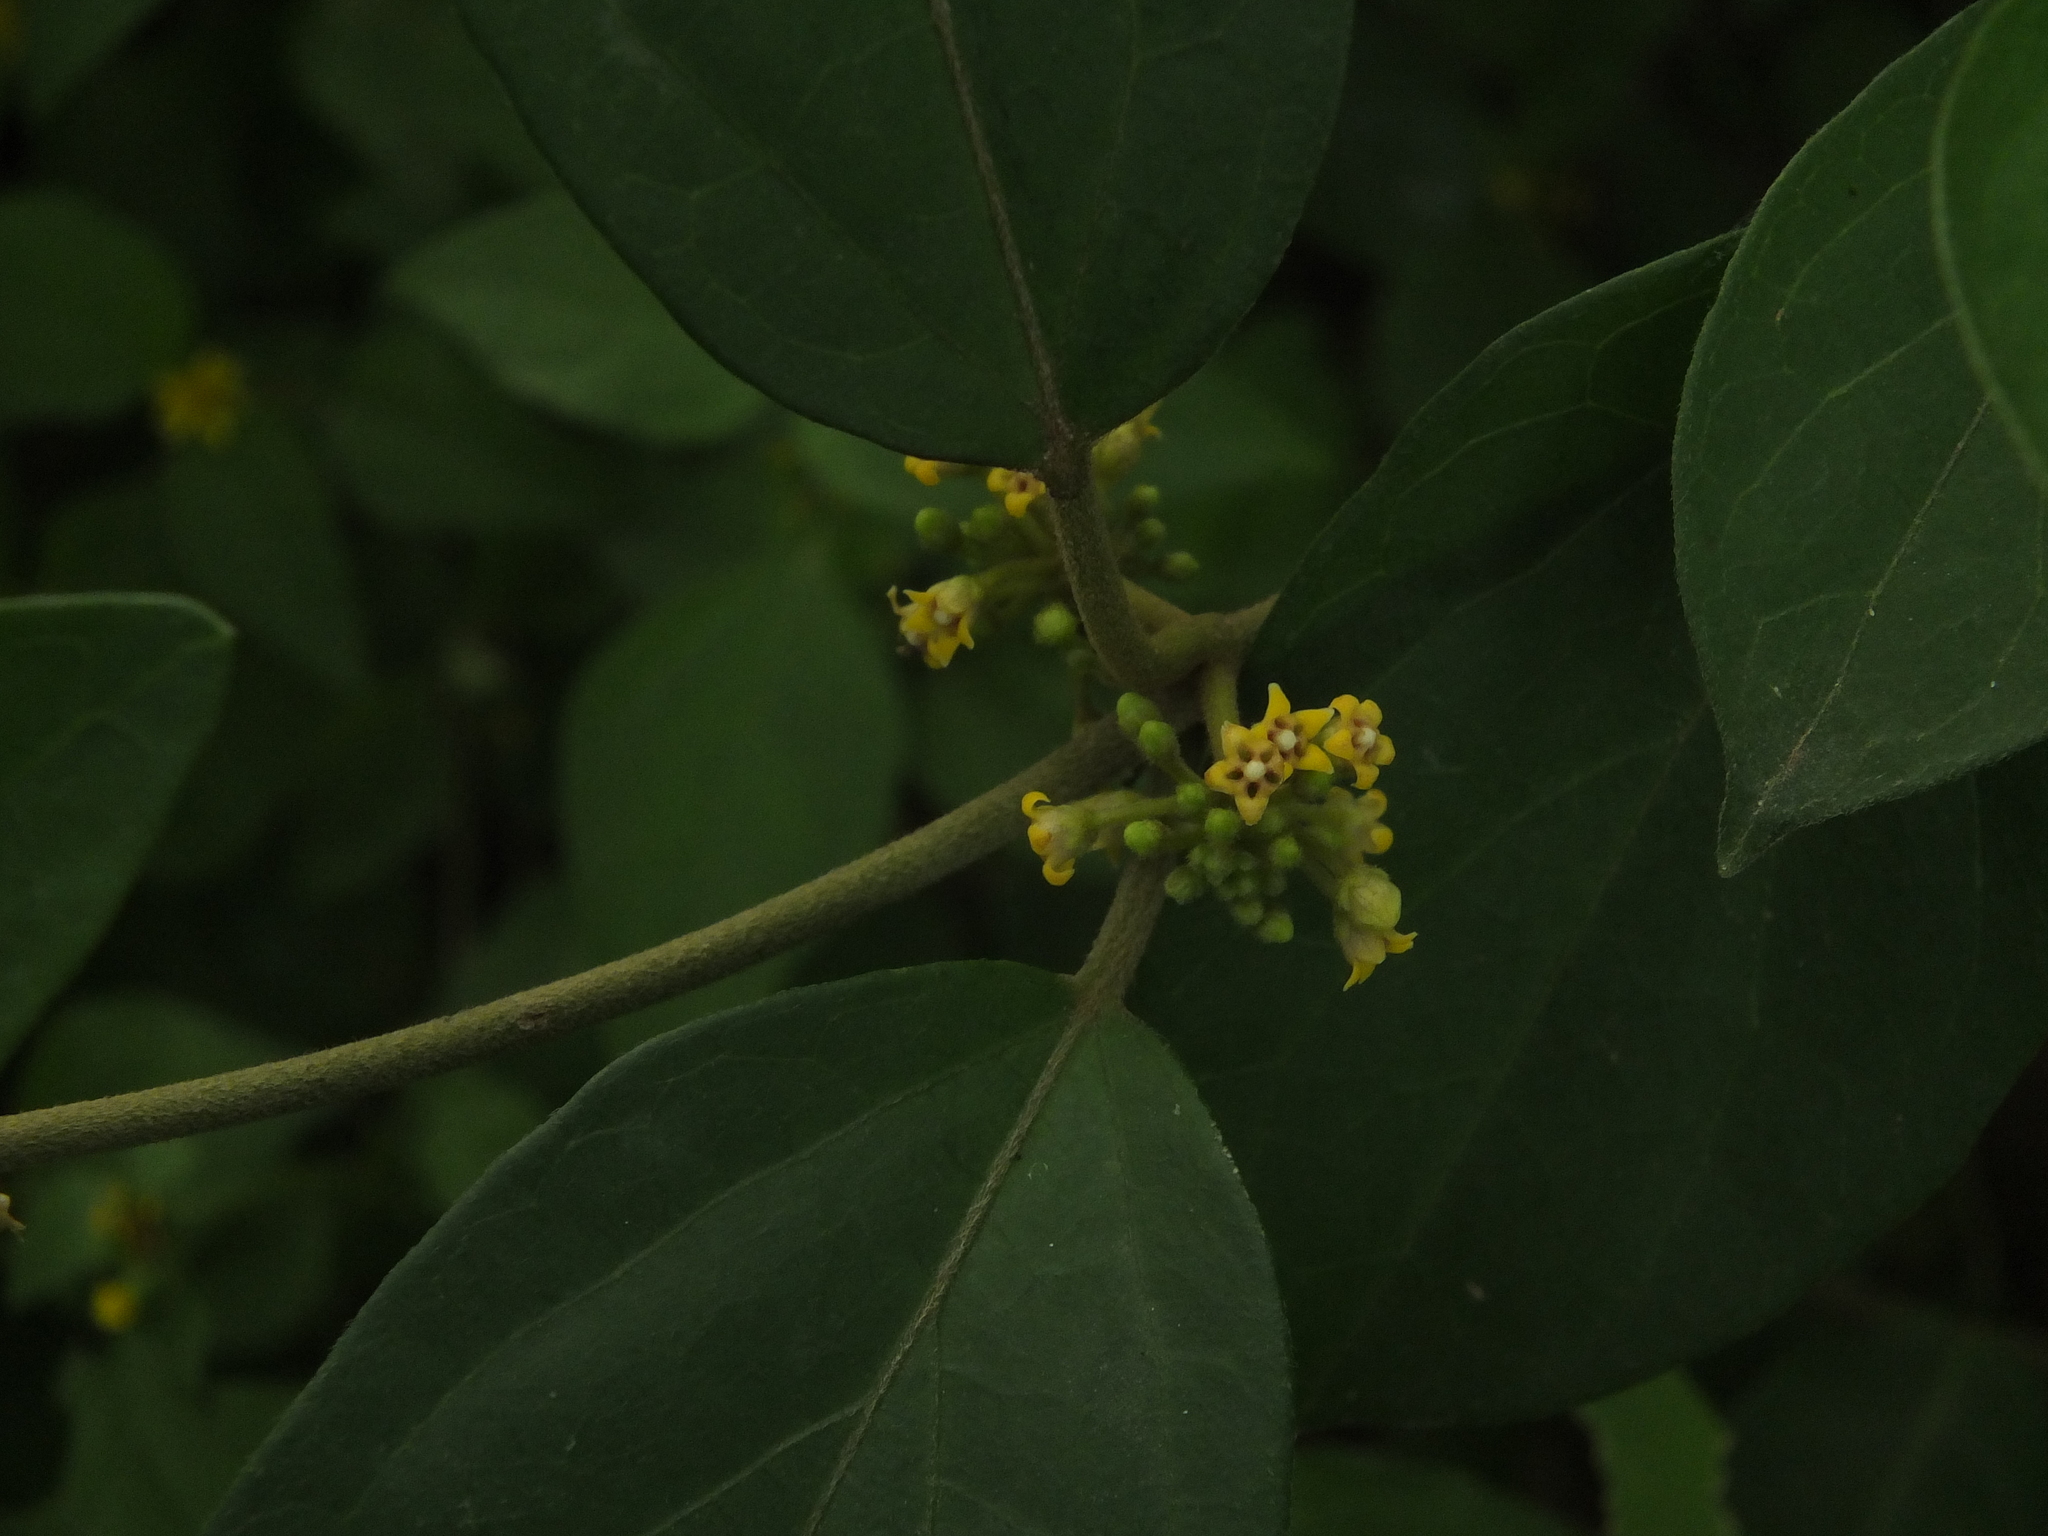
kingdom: Plantae
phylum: Tracheophyta
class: Magnoliopsida
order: Gentianales
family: Apocynaceae
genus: Gymnema
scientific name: Gymnema sylvestre
